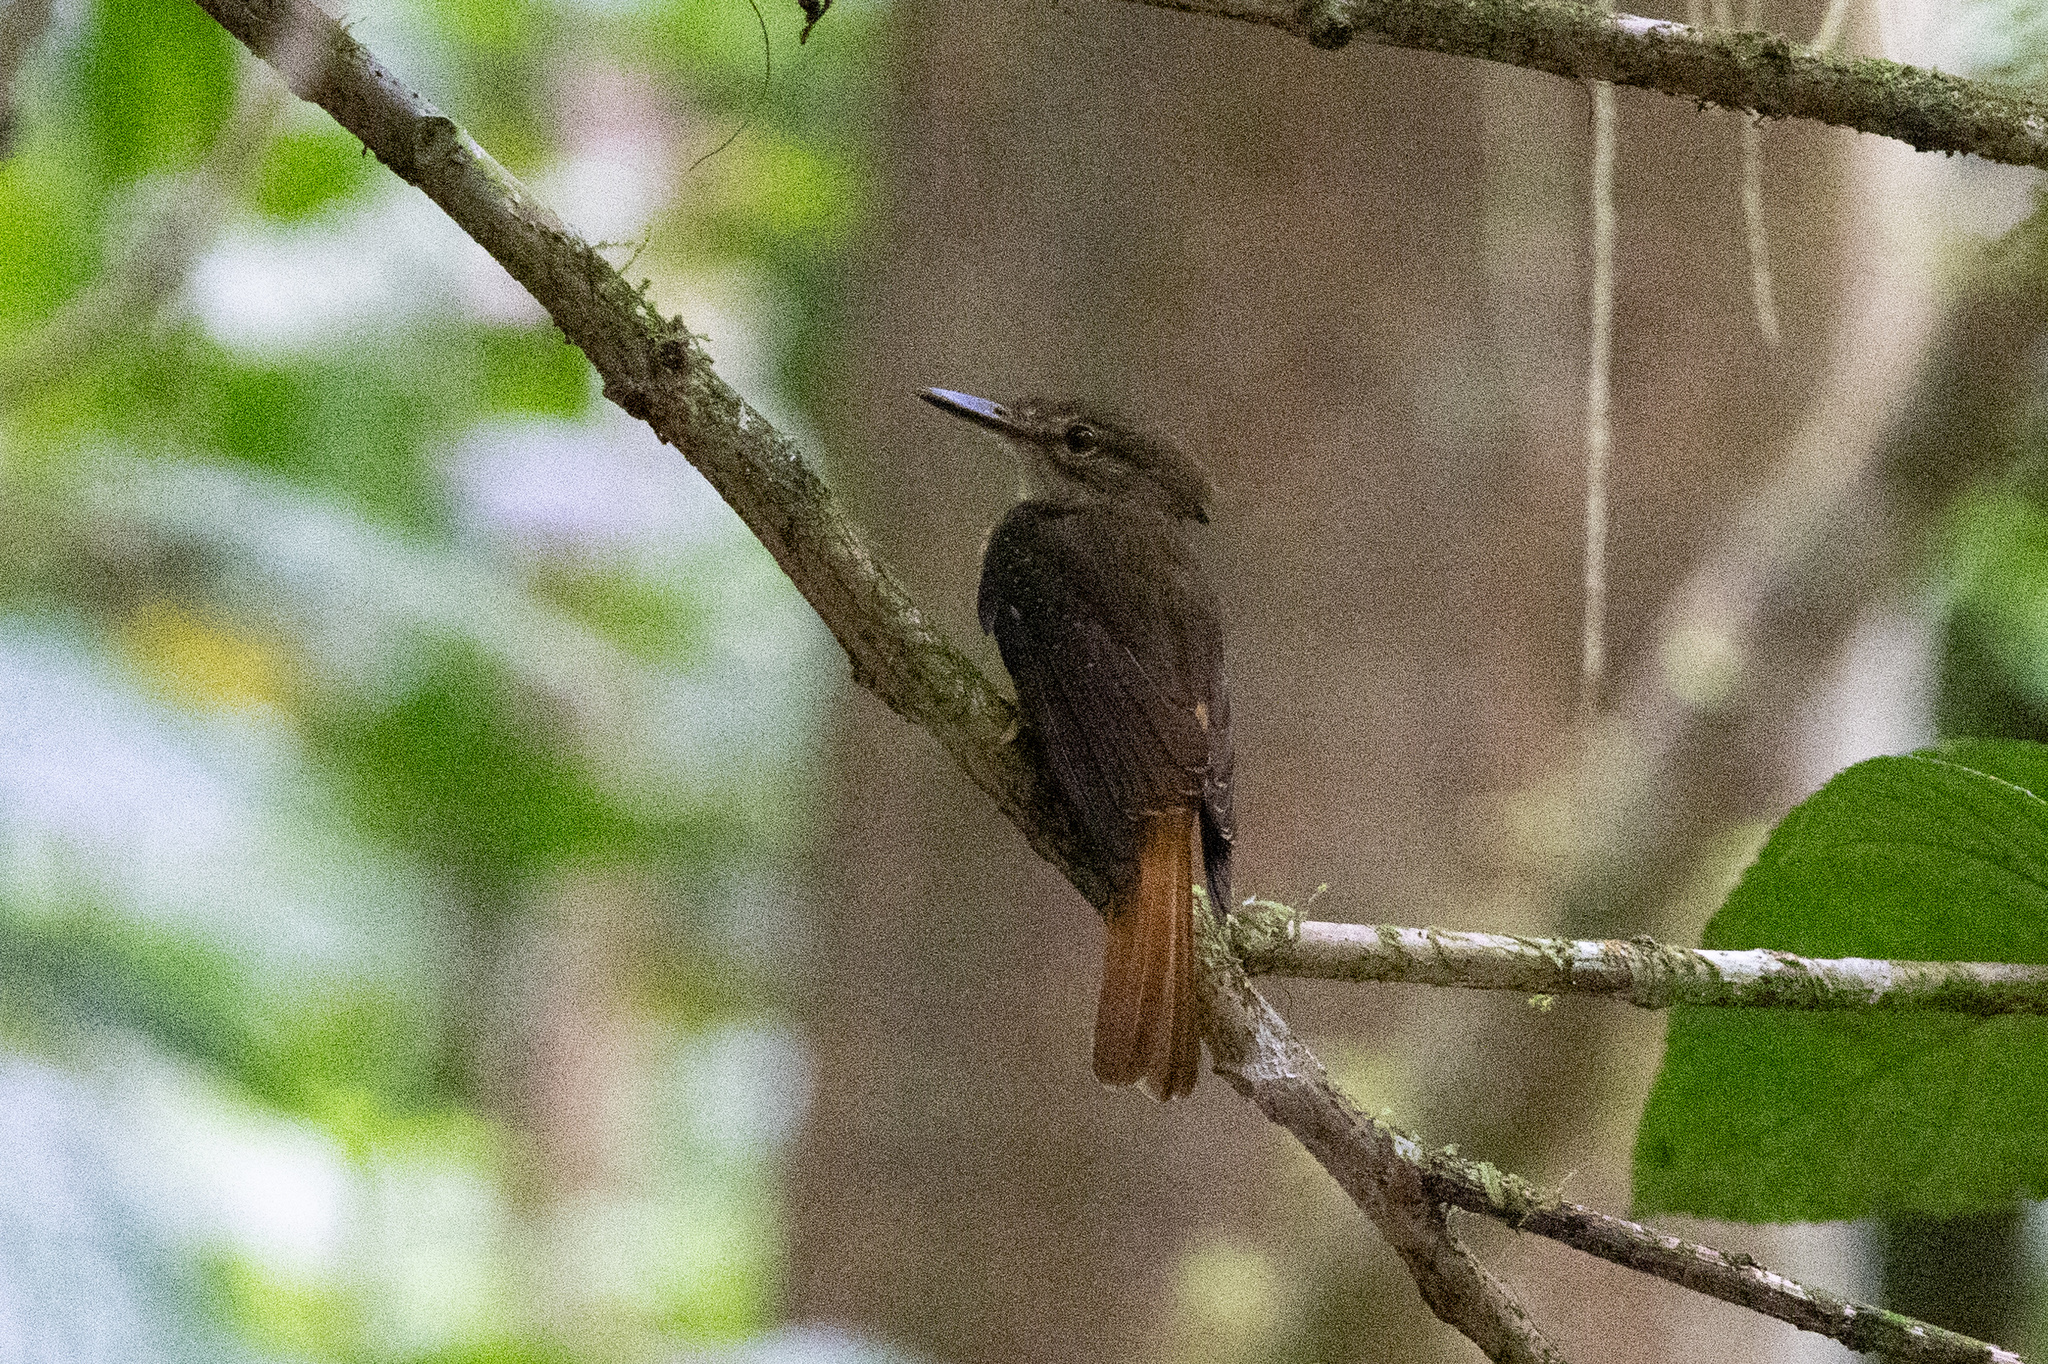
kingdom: Animalia
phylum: Chordata
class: Aves
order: Passeriformes
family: Tyrannidae
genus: Onychorhynchus
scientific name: Onychorhynchus coronatus
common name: Royal flycatcher
